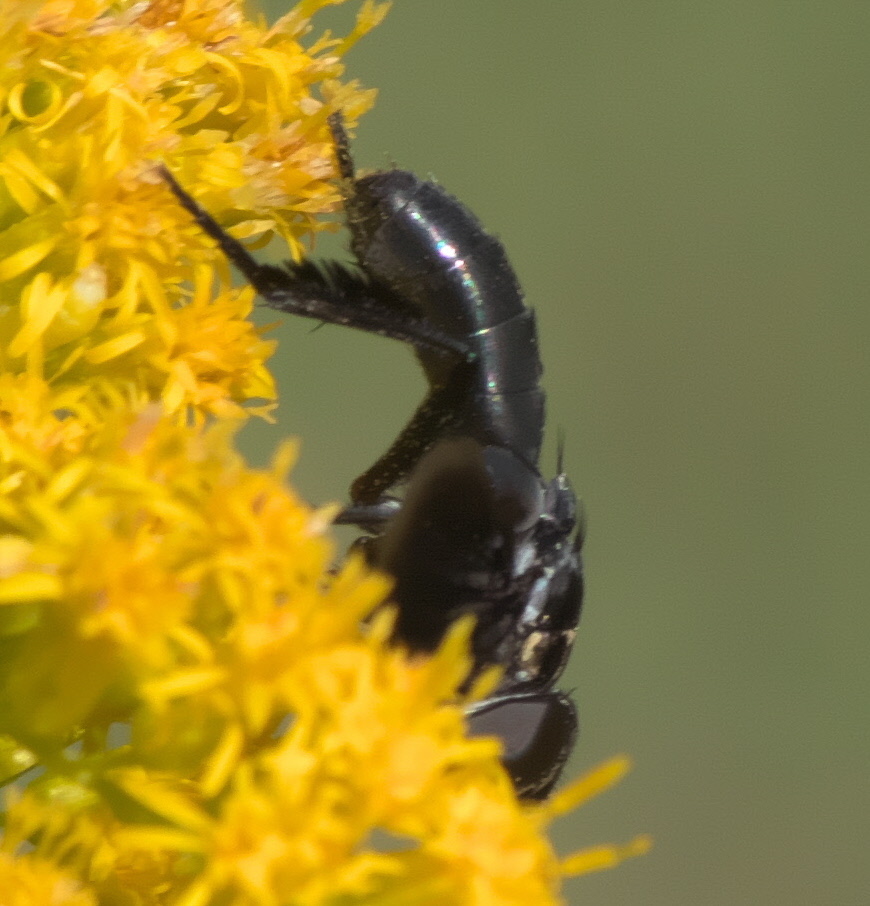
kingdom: Animalia
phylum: Arthropoda
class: Insecta
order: Diptera
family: Tachinidae
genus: Trichopoda
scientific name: Trichopoda lanipes
